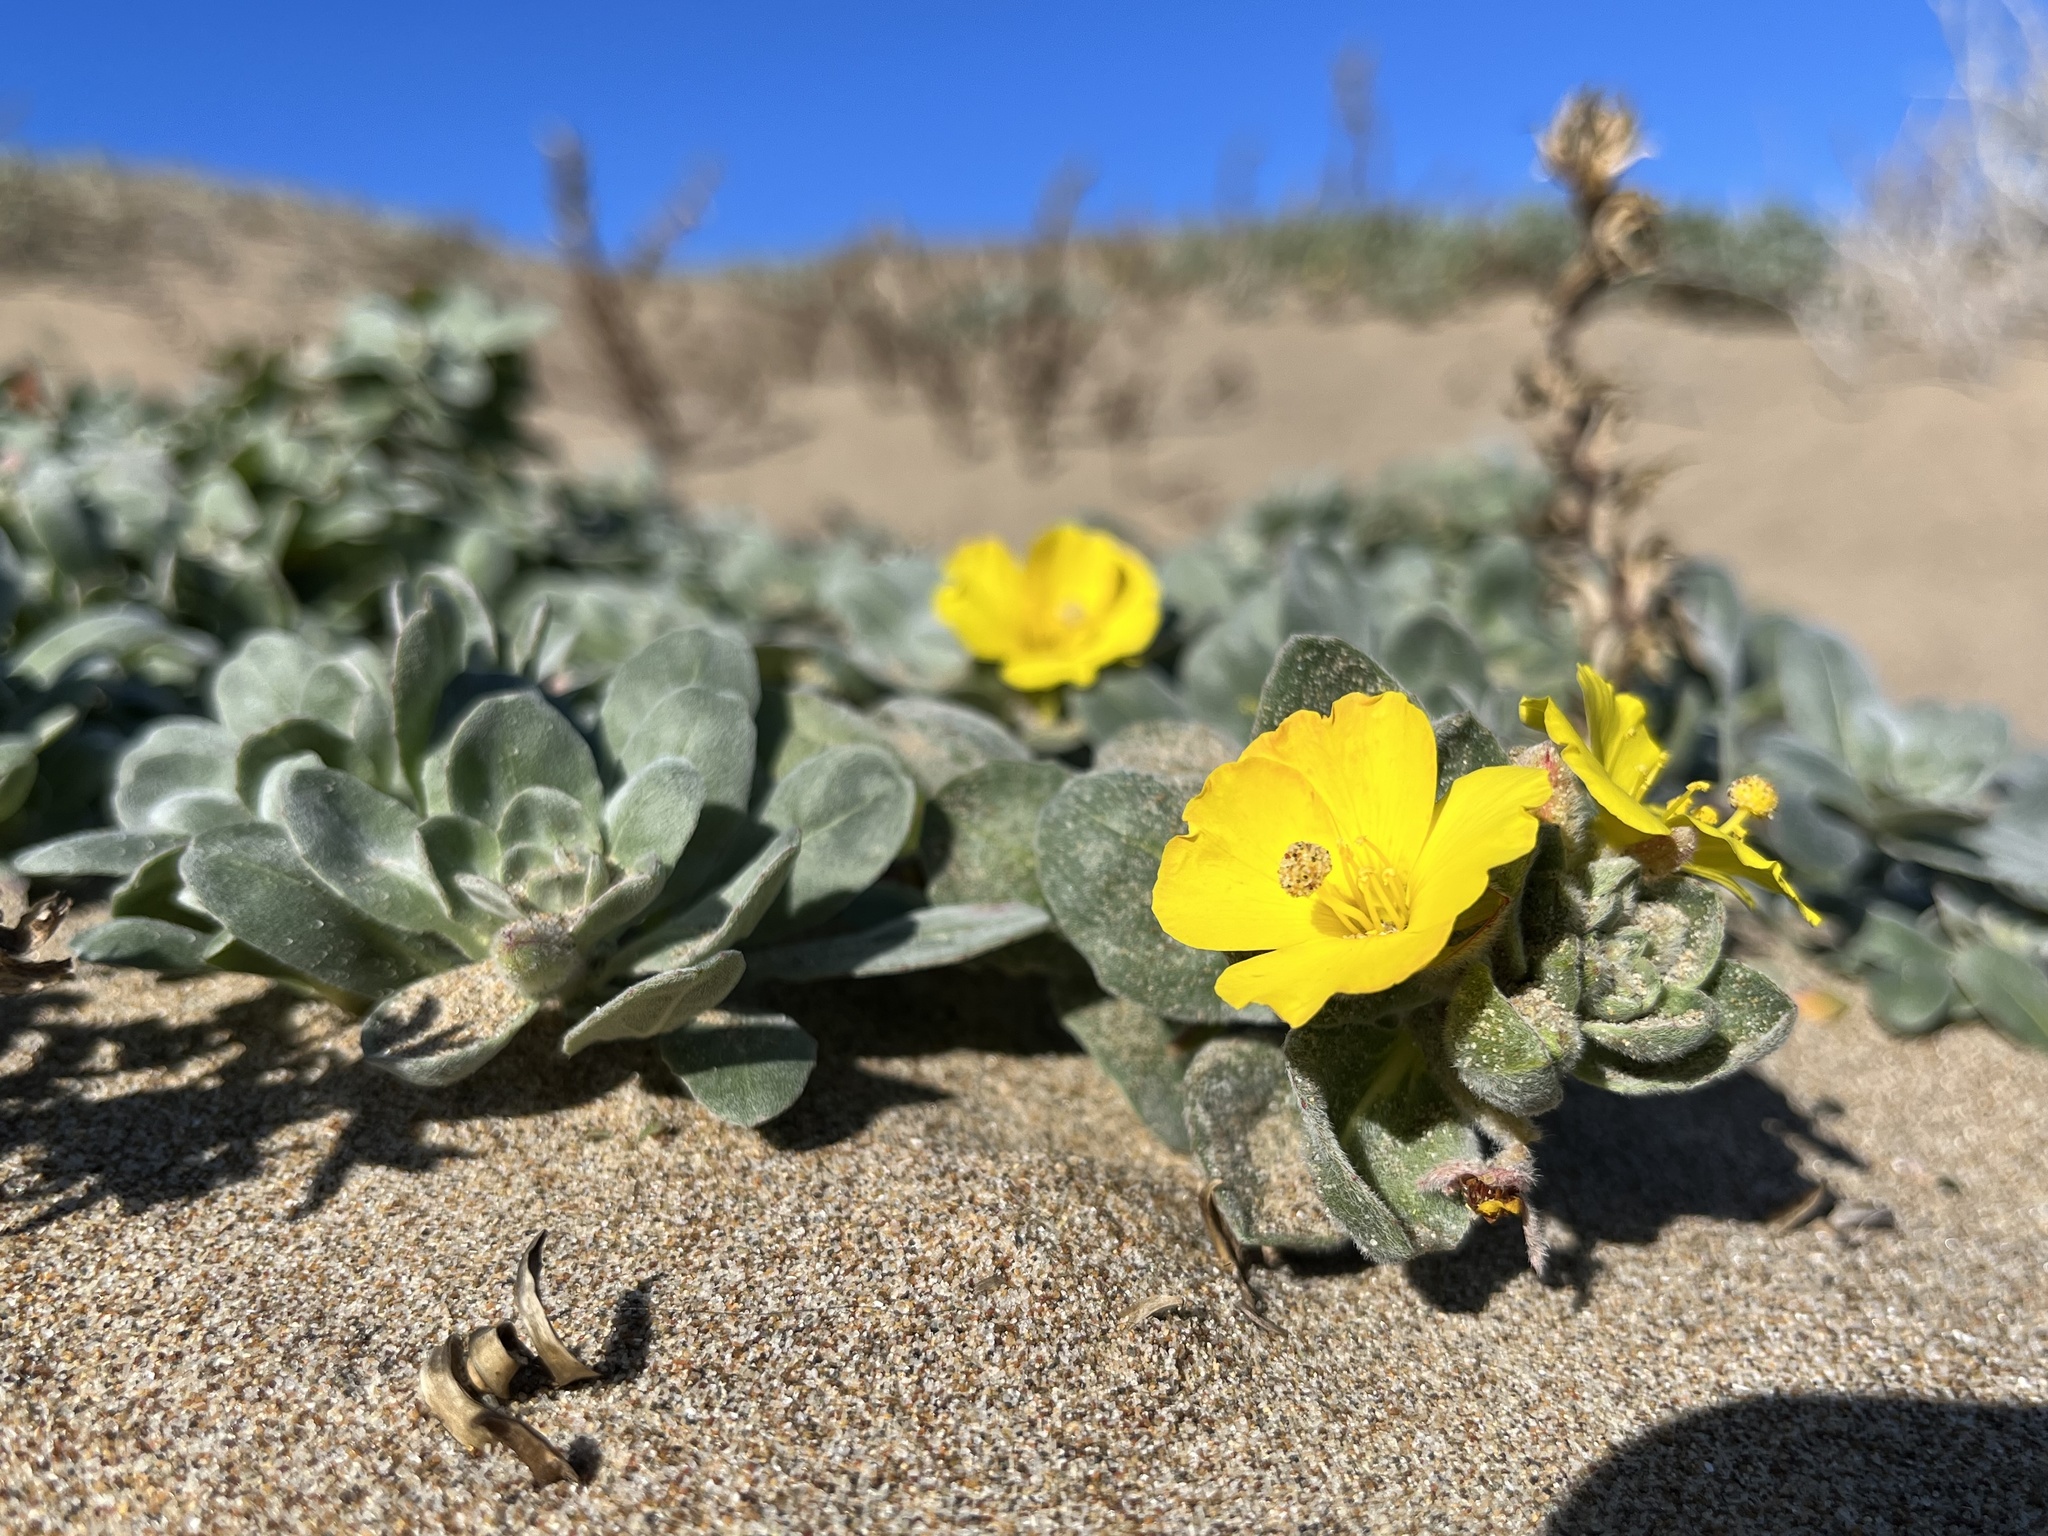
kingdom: Plantae
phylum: Tracheophyta
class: Magnoliopsida
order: Myrtales
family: Onagraceae
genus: Camissoniopsis
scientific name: Camissoniopsis cheiranthifolia
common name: Beach suncup
